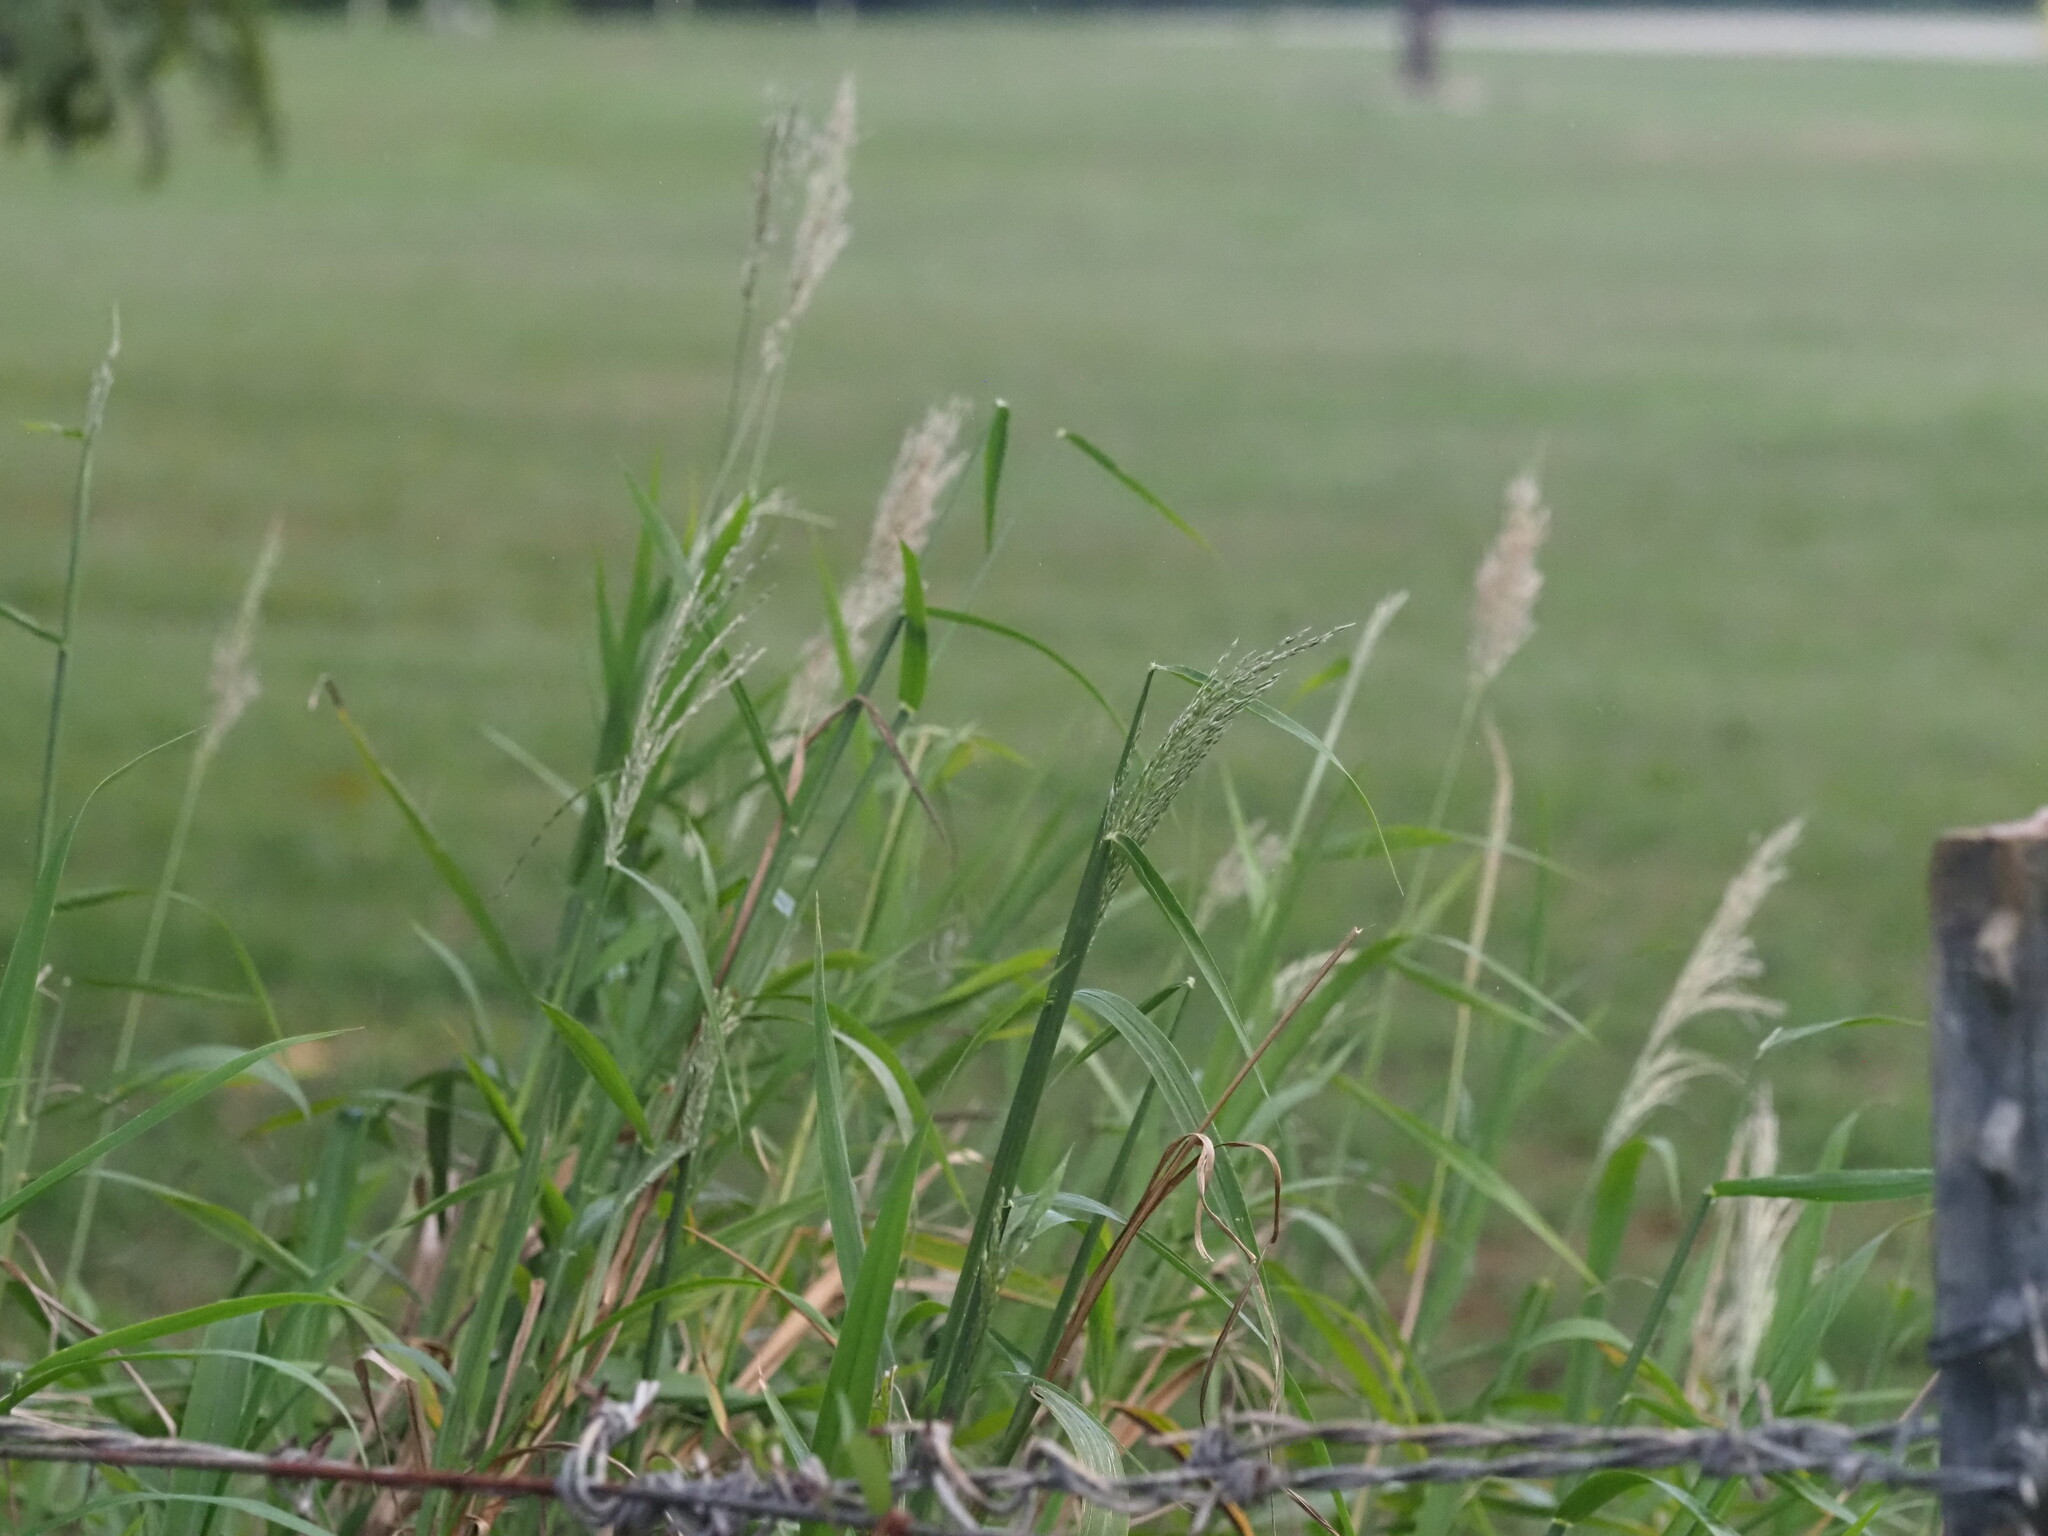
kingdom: Plantae
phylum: Tracheophyta
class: Liliopsida
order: Poales
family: Poaceae
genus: Digitaria
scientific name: Digitaria insularis
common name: Sourgrass
